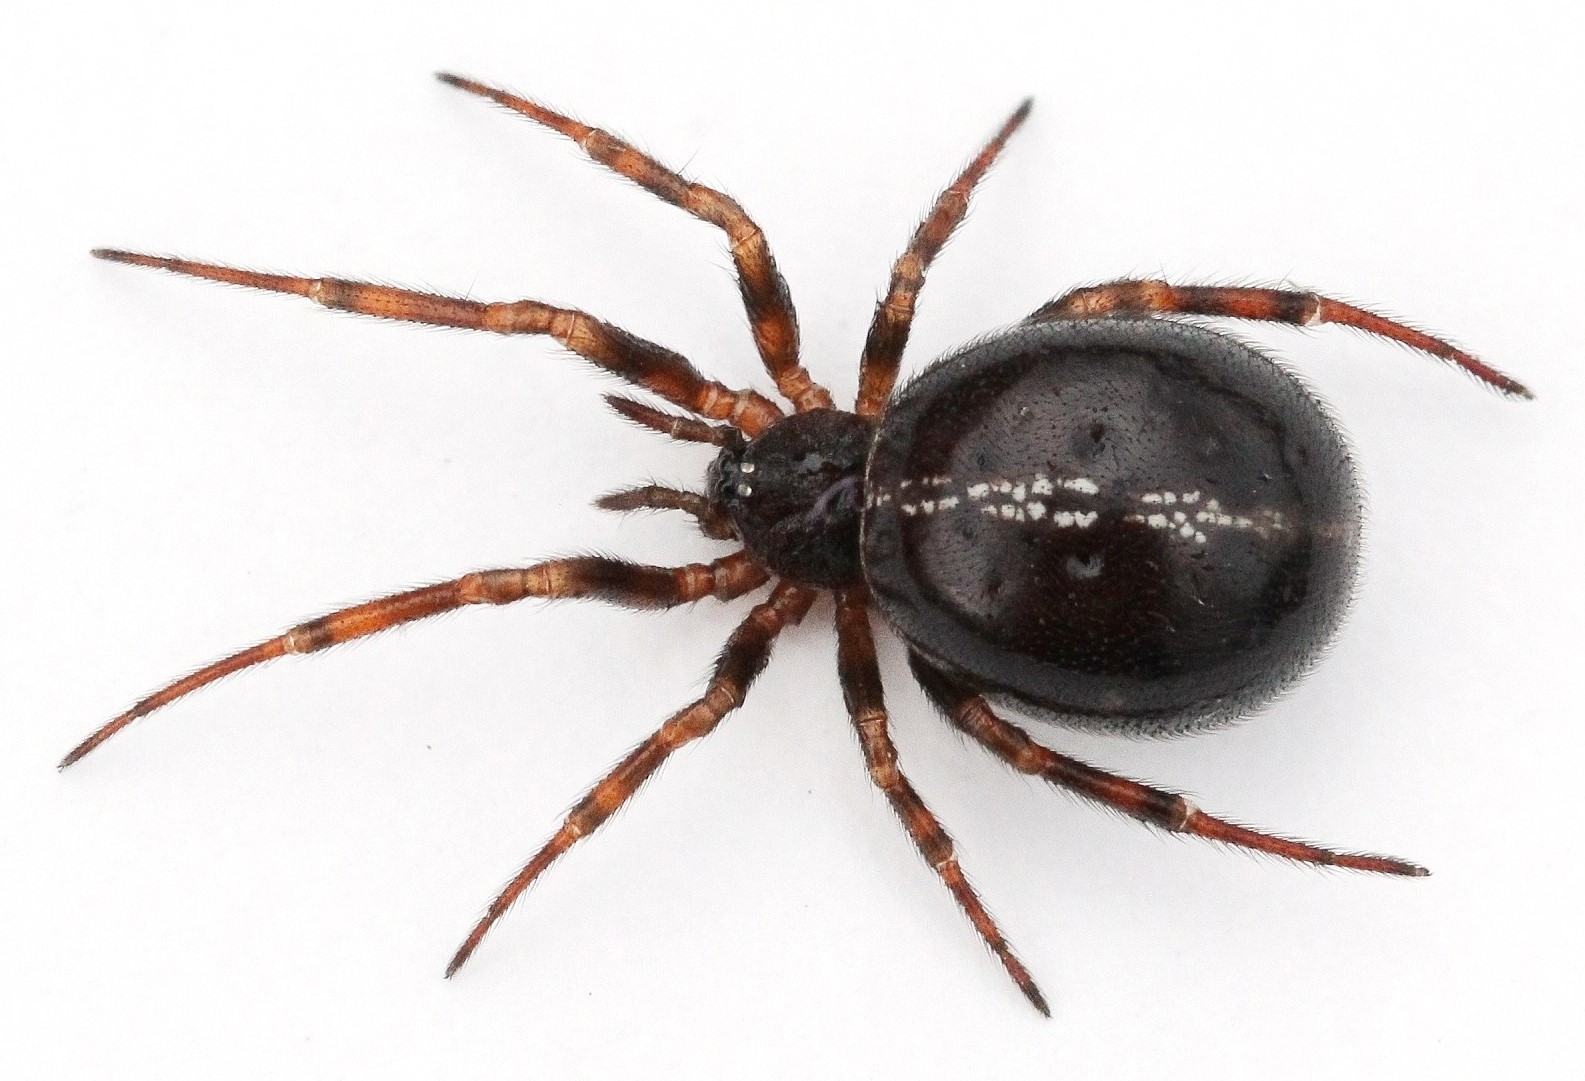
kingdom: Animalia
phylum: Arthropoda
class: Arachnida
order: Araneae
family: Theridiidae
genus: Steatoda
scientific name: Steatoda bipunctata
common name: False widow
